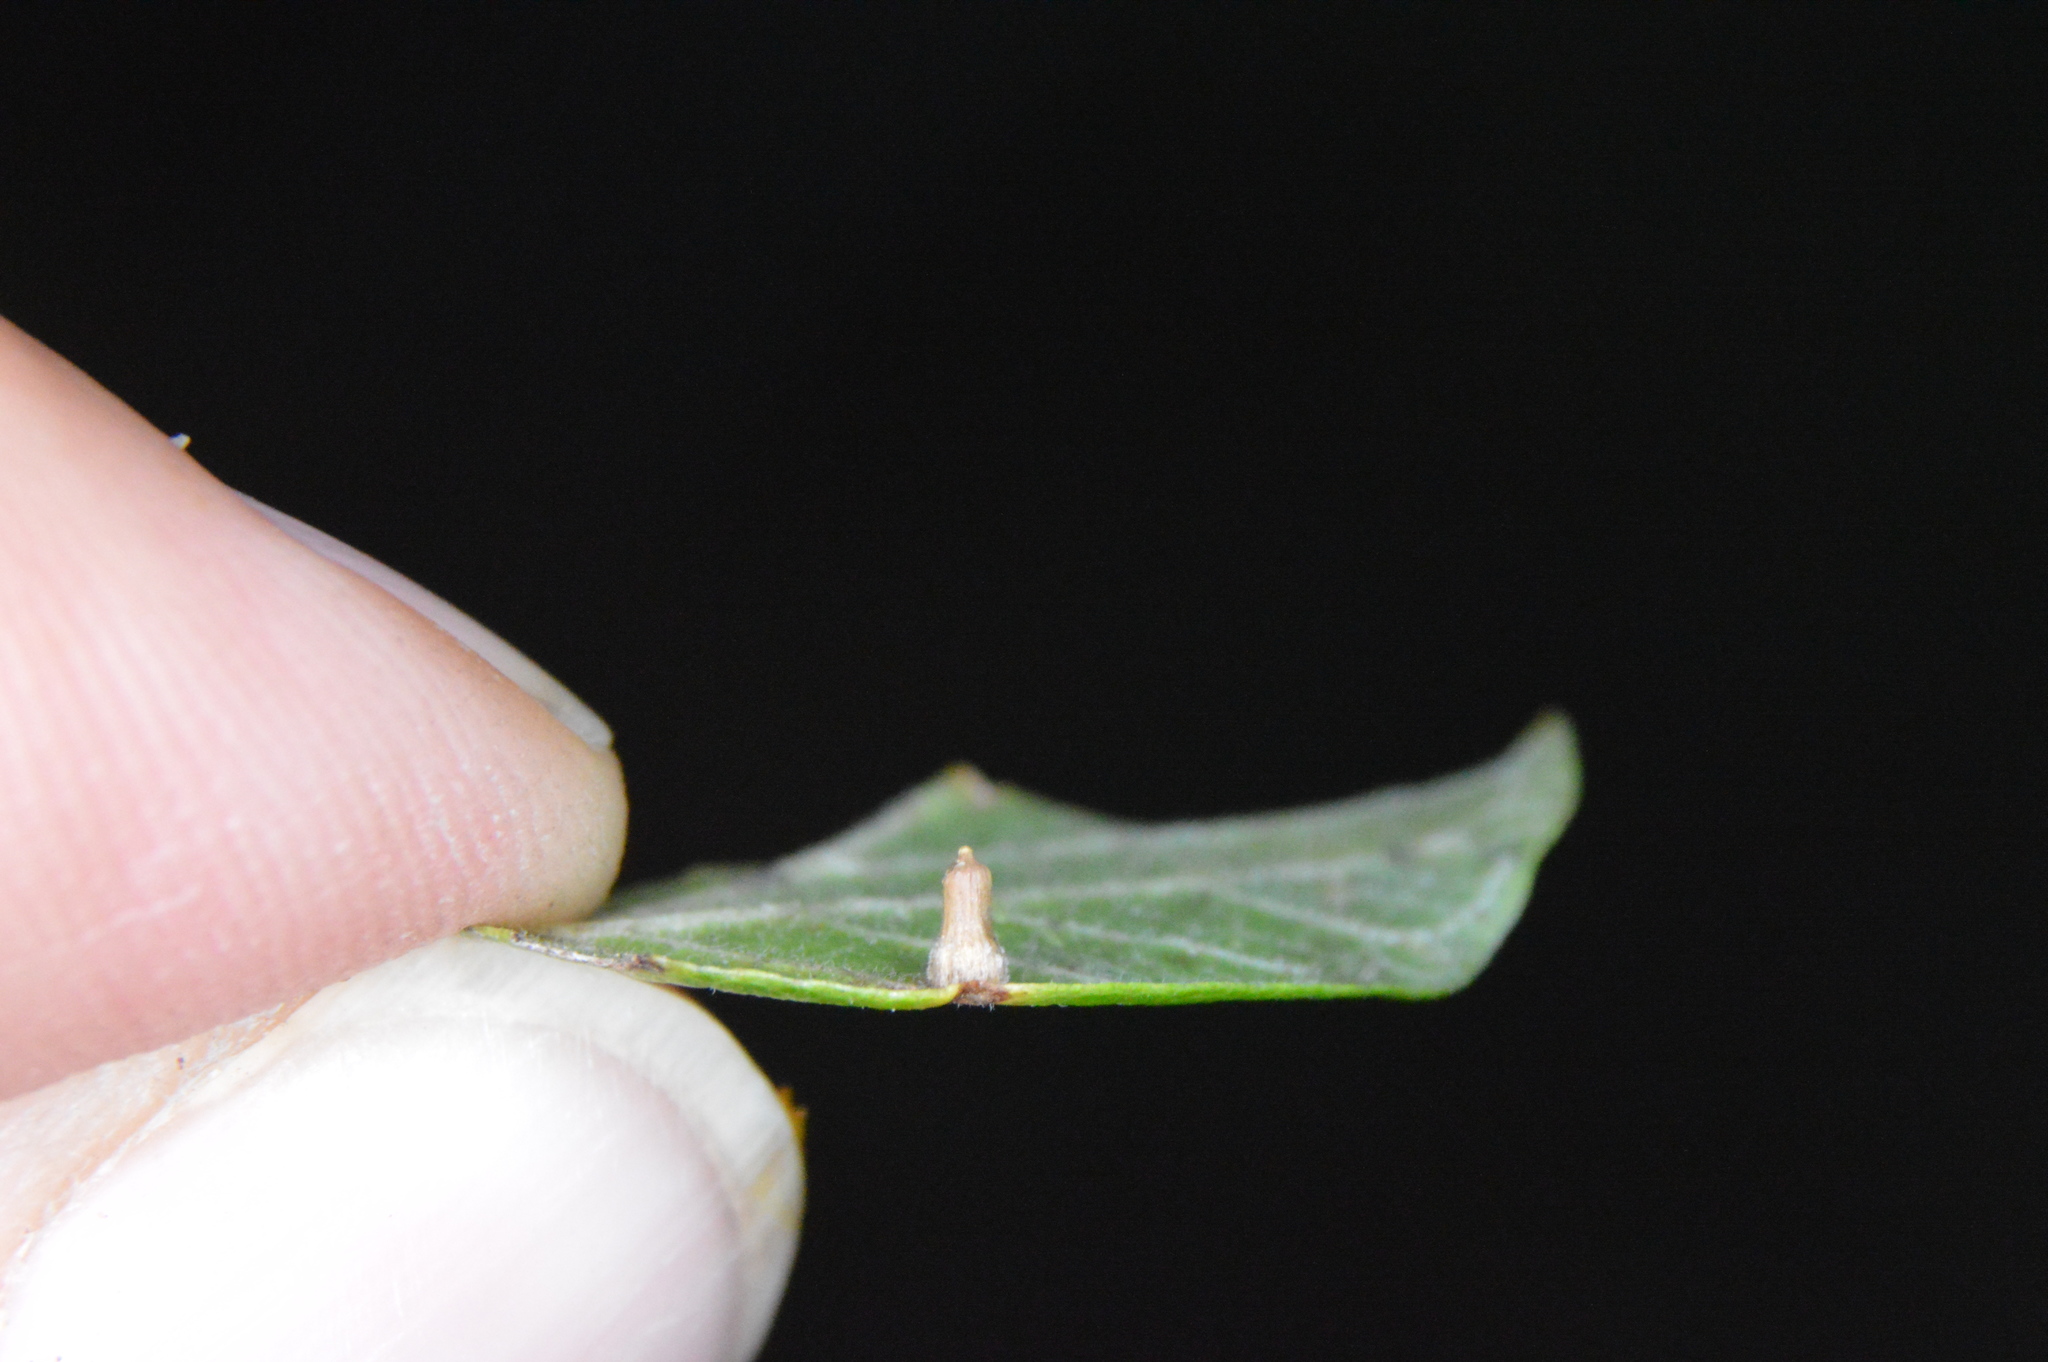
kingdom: Animalia
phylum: Arthropoda
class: Insecta
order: Diptera
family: Cecidomyiidae
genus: Celticecis
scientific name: Celticecis aciculata
